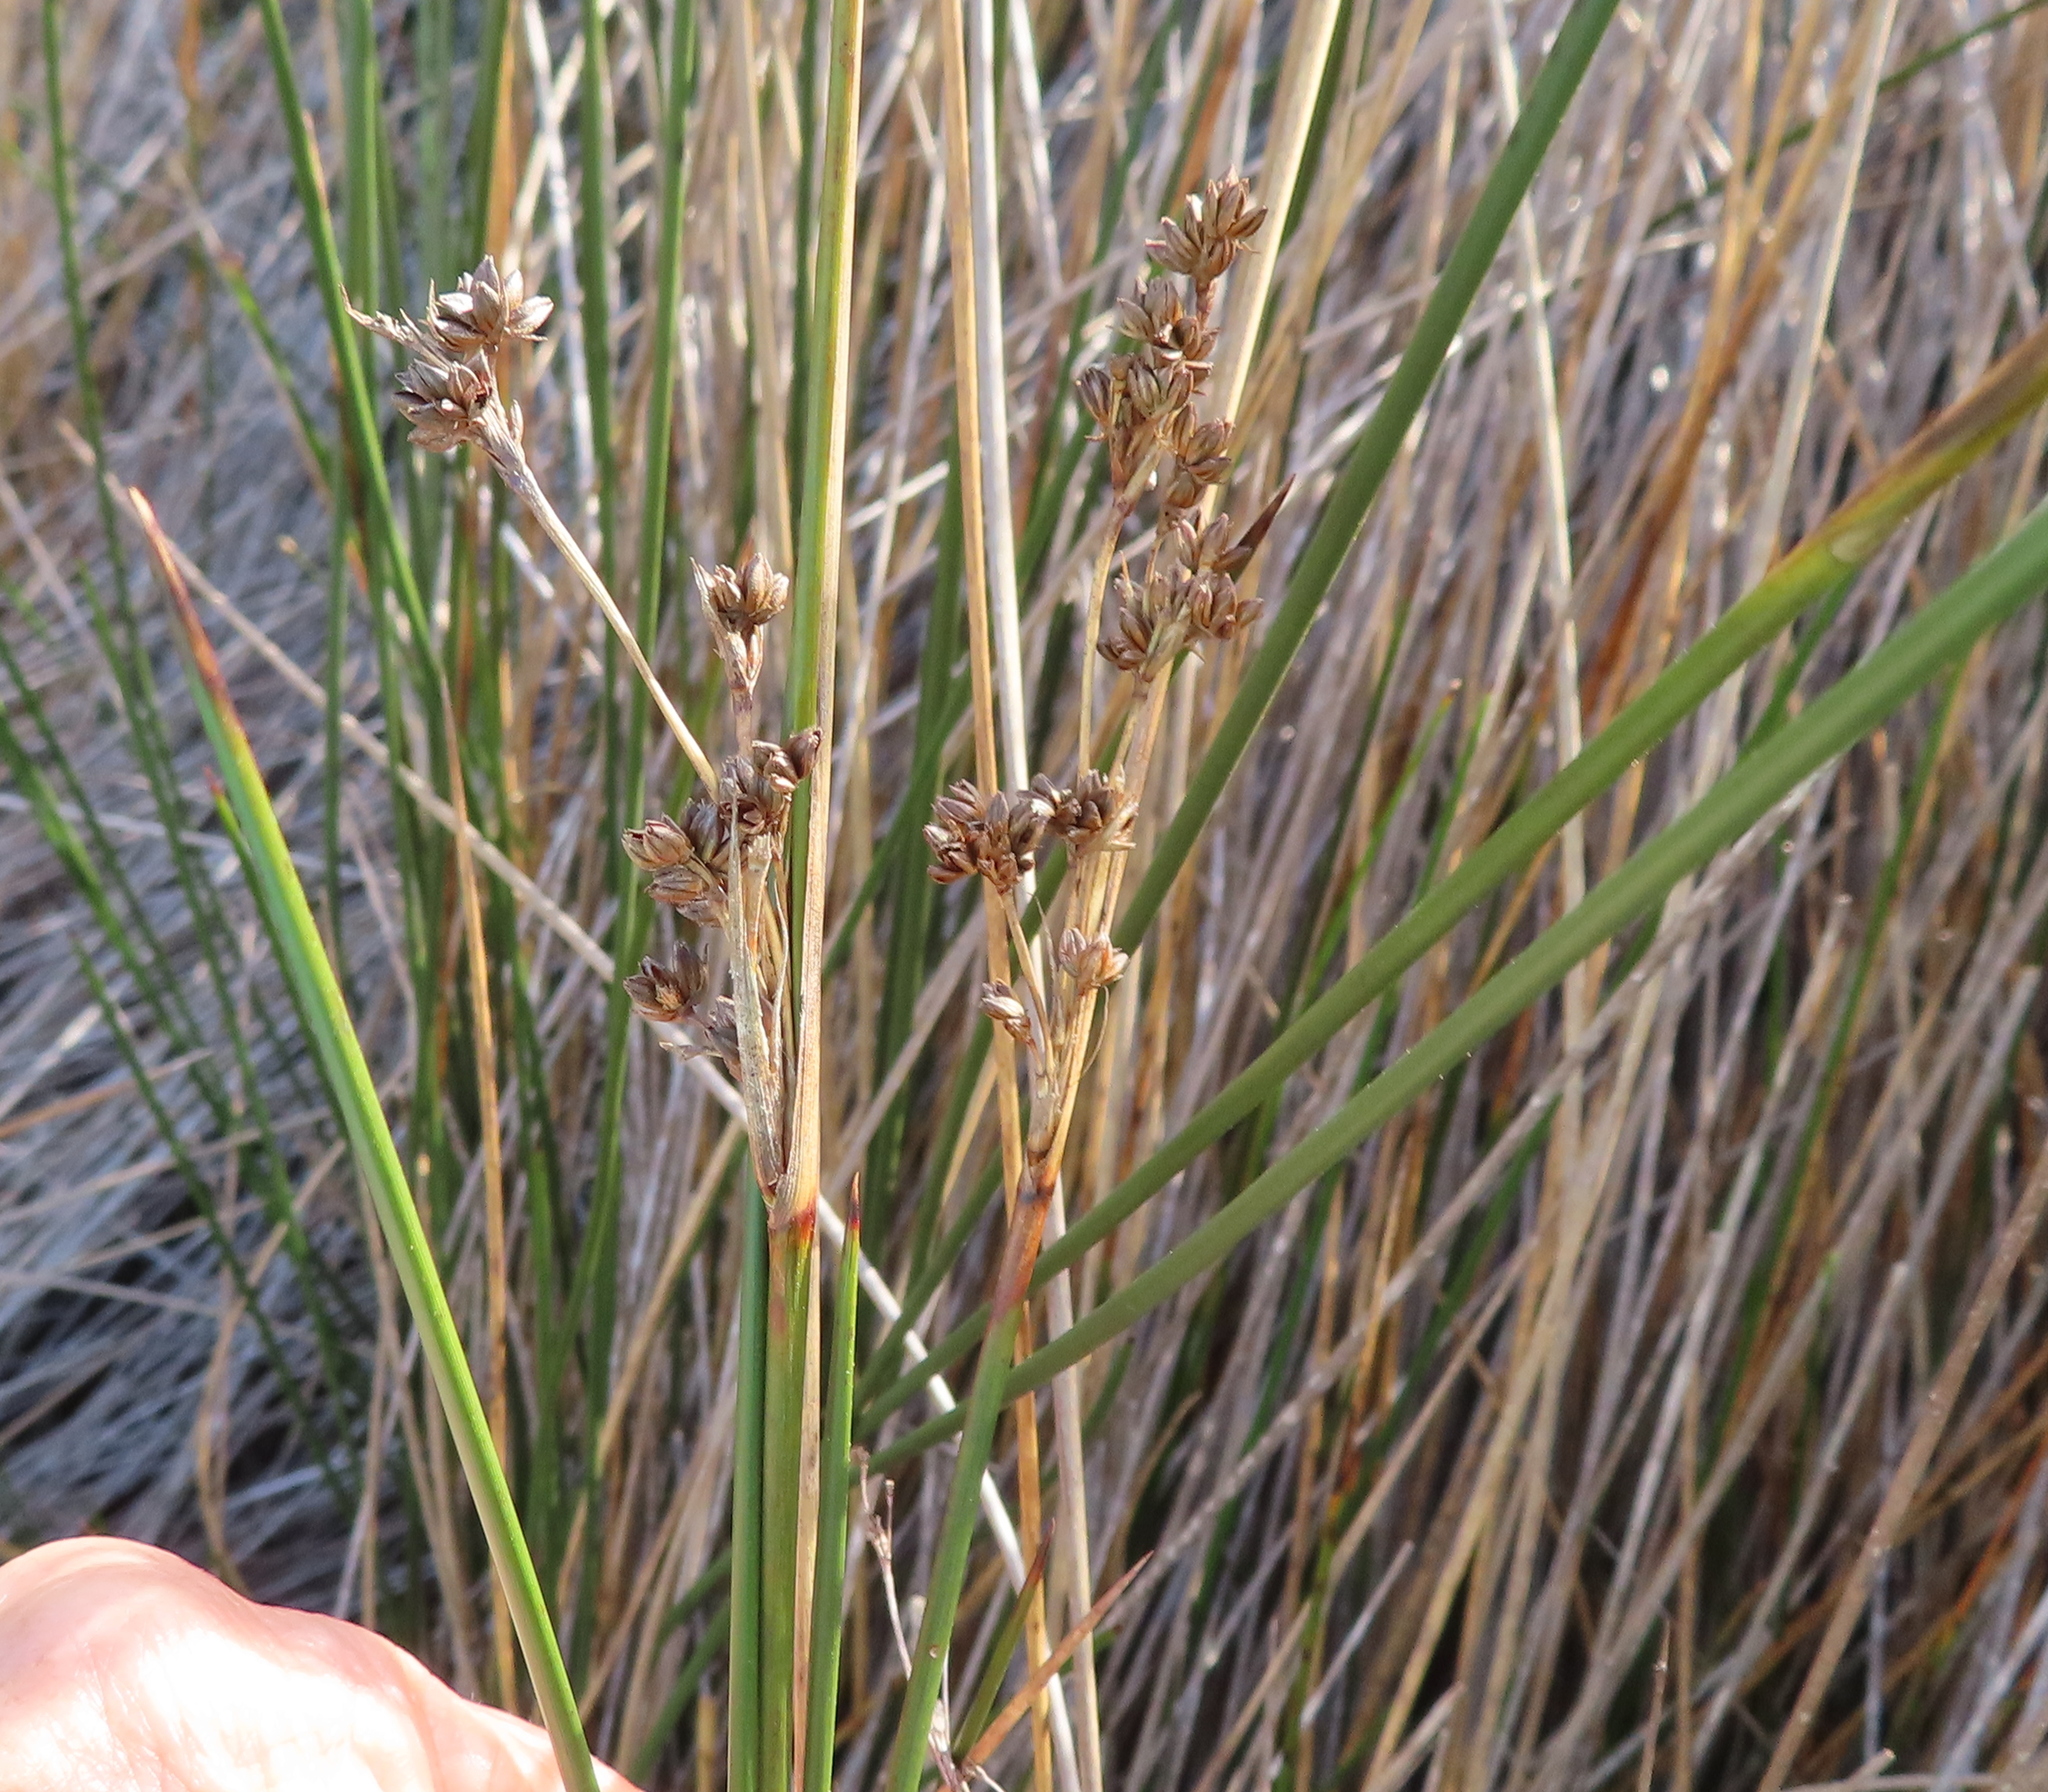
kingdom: Plantae
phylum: Tracheophyta
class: Liliopsida
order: Poales
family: Juncaceae
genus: Juncus
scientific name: Juncus kraussii
